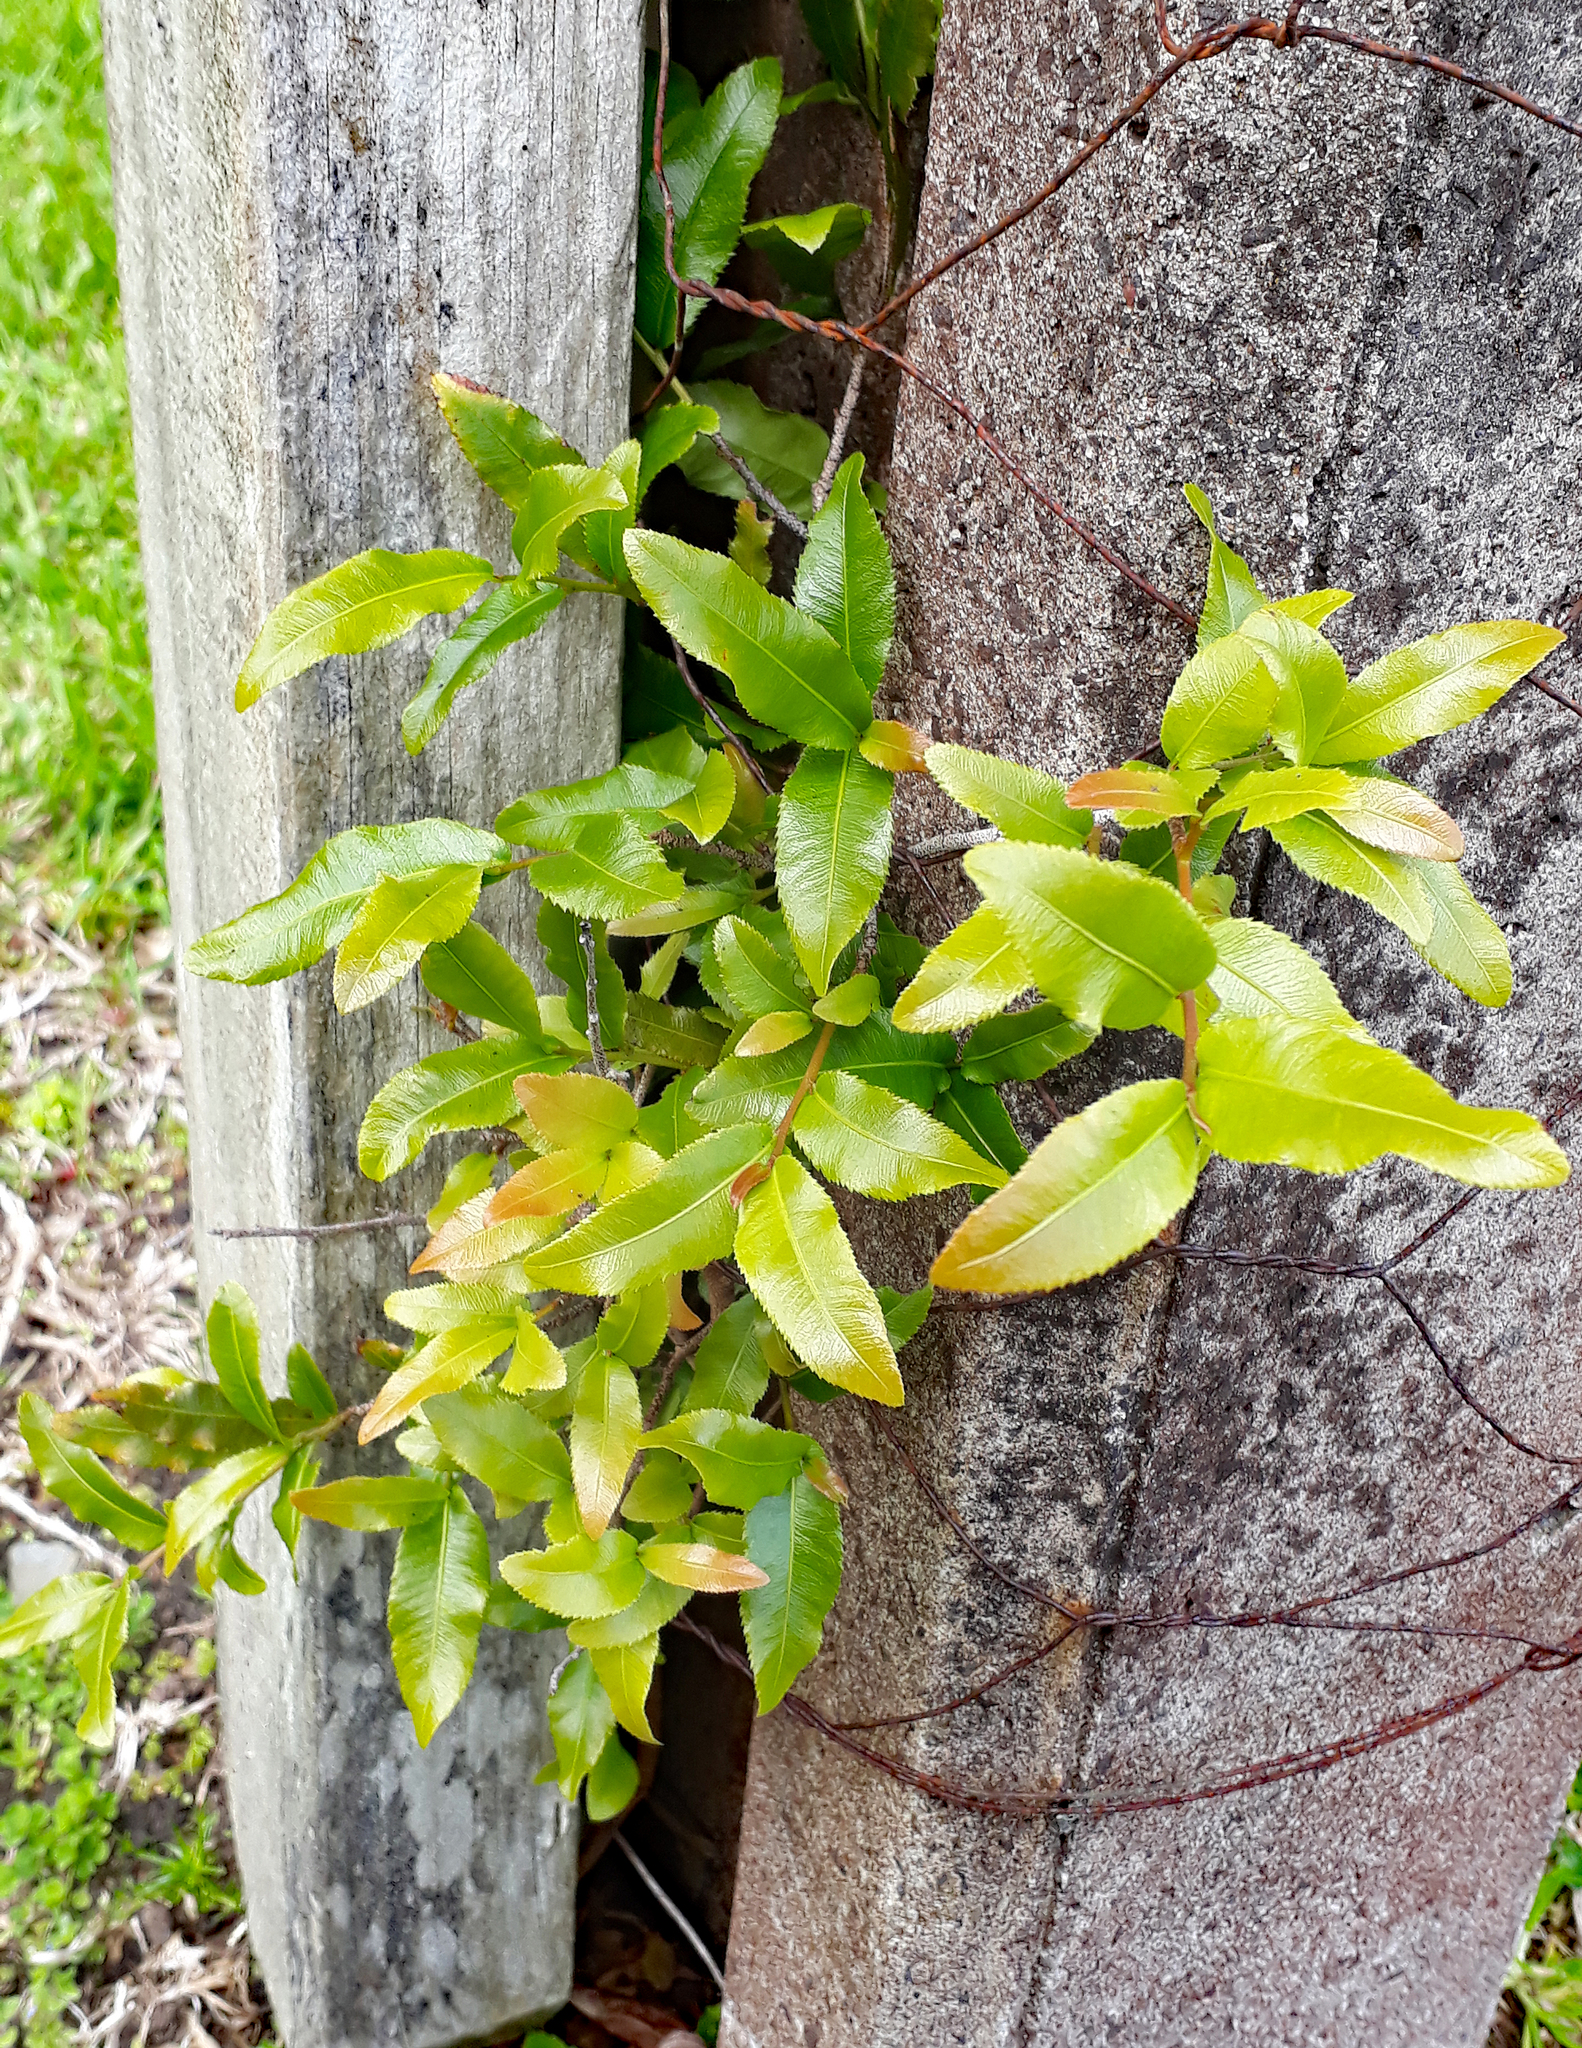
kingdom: Plantae
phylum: Tracheophyta
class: Magnoliopsida
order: Malpighiales
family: Ochnaceae
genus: Ochna
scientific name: Ochna serrulata
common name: Mickey mouse plant
